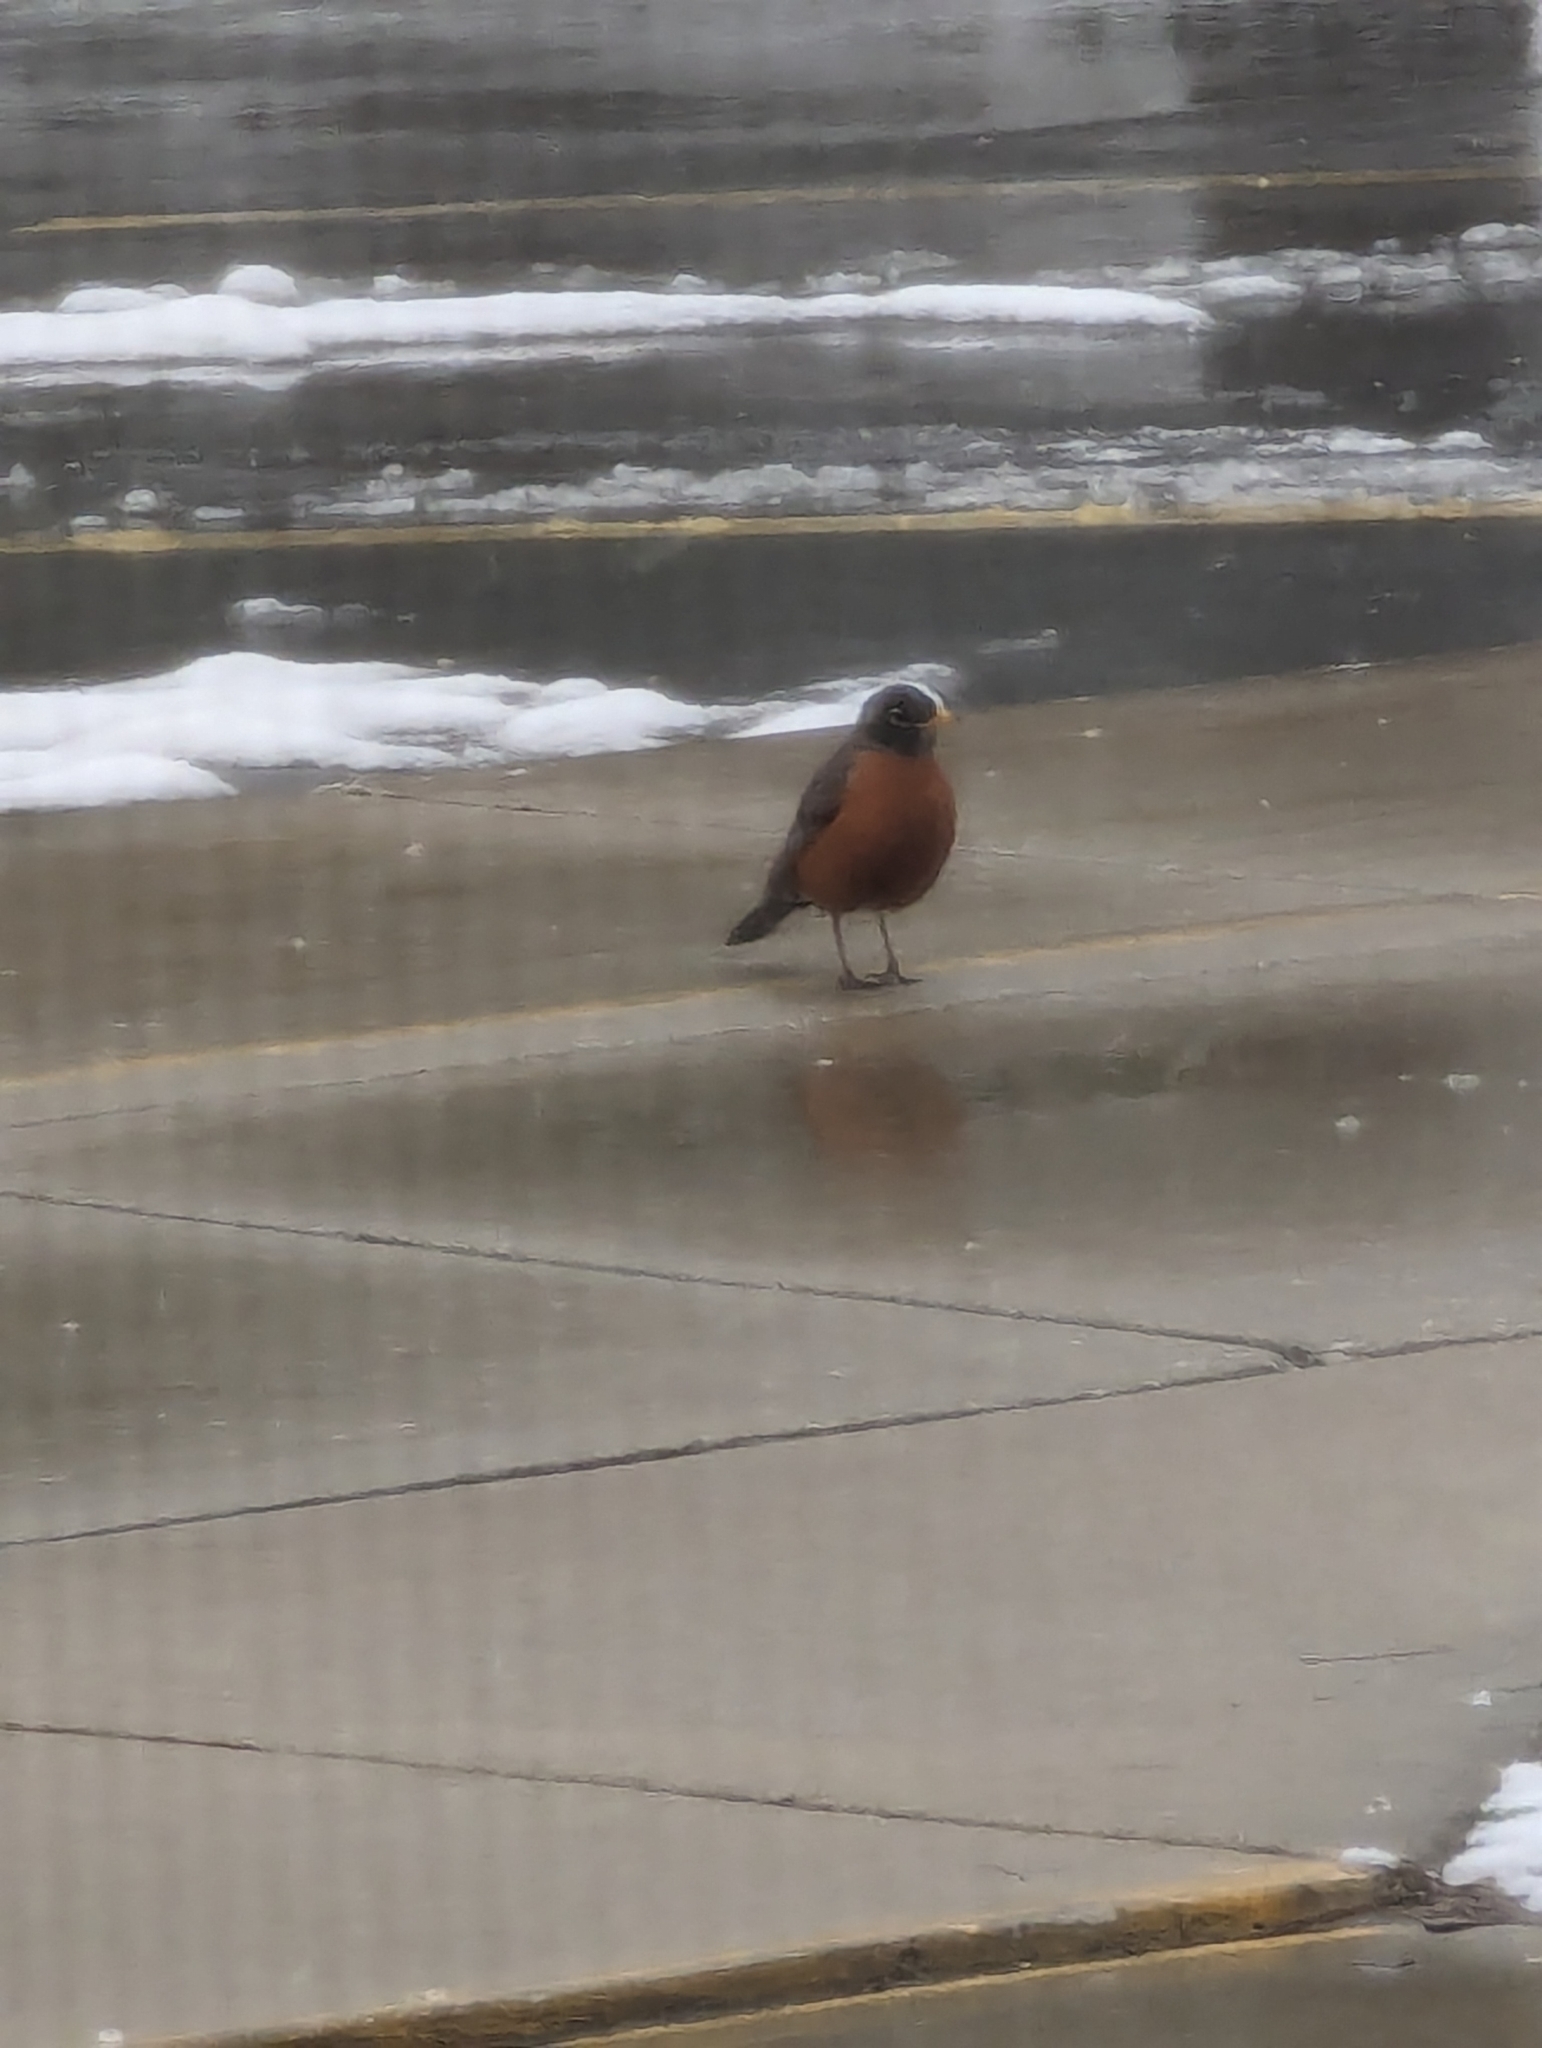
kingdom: Animalia
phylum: Chordata
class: Aves
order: Passeriformes
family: Turdidae
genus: Turdus
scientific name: Turdus migratorius
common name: American robin
